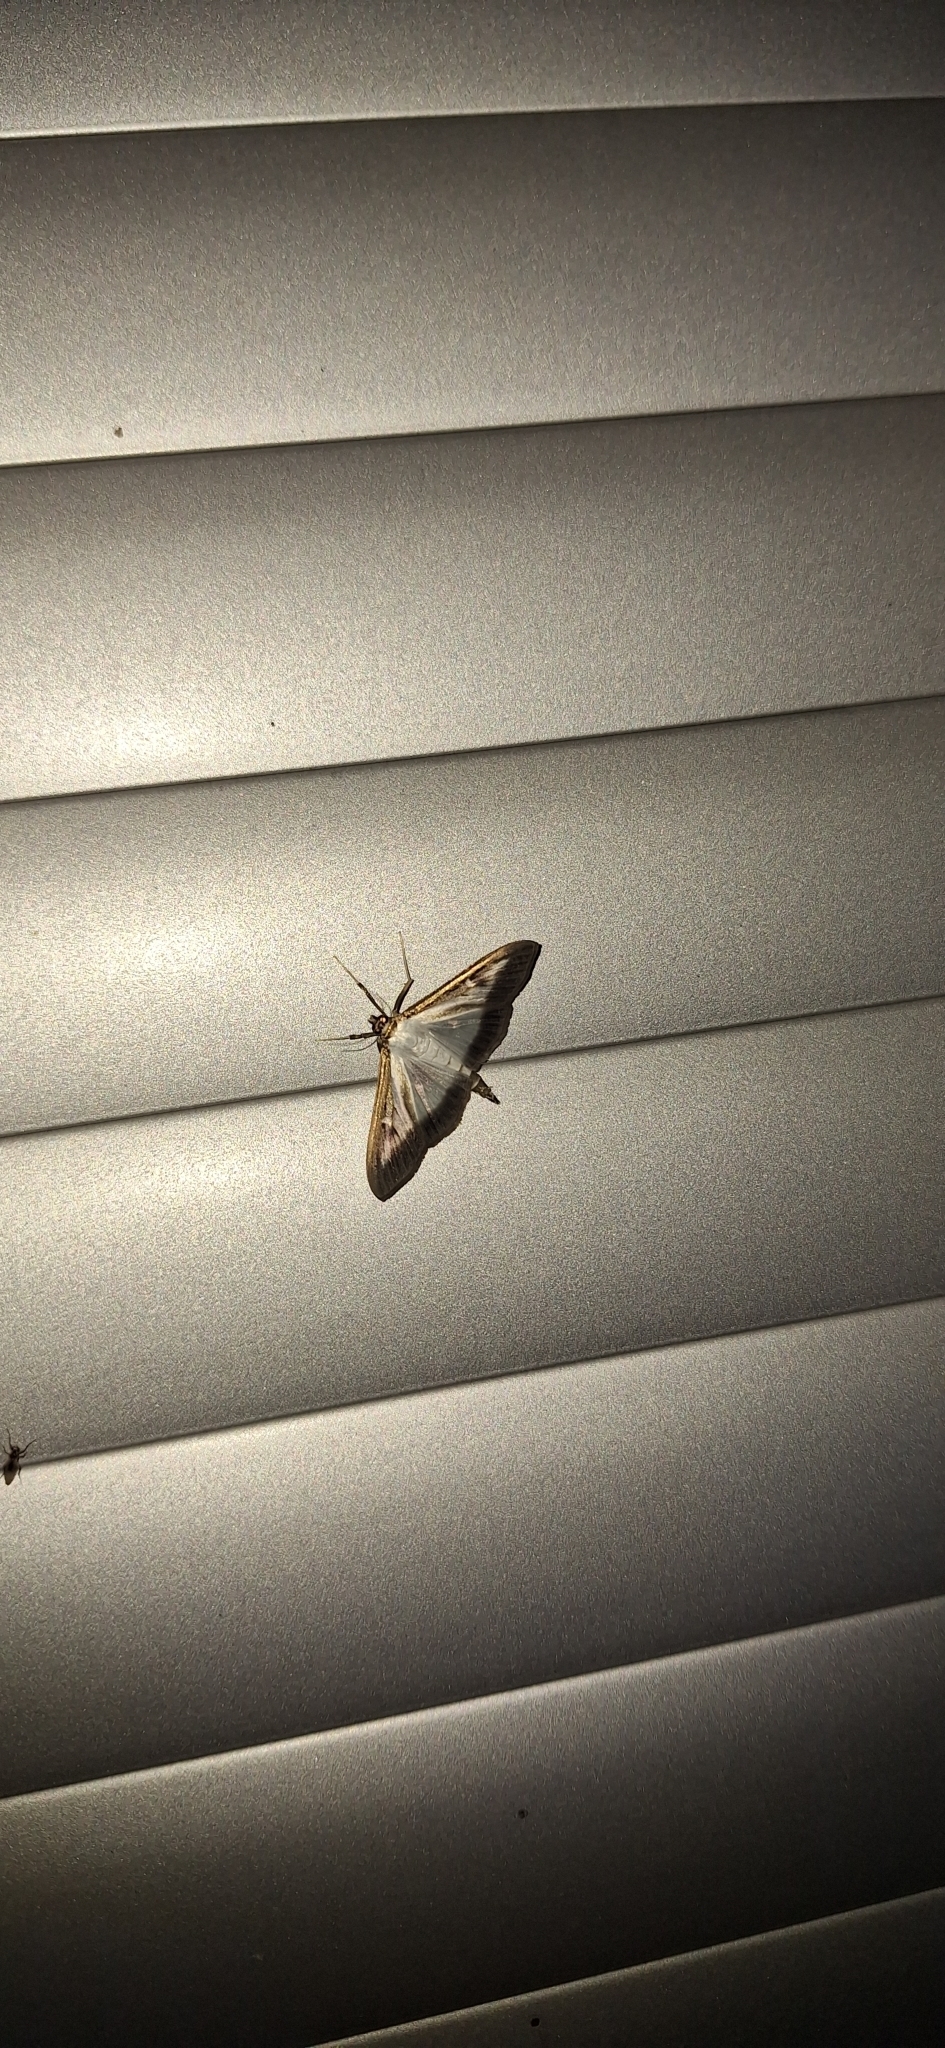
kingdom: Animalia
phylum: Arthropoda
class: Insecta
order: Lepidoptera
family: Crambidae
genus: Cydalima
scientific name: Cydalima perspectalis
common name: Box tree moth
